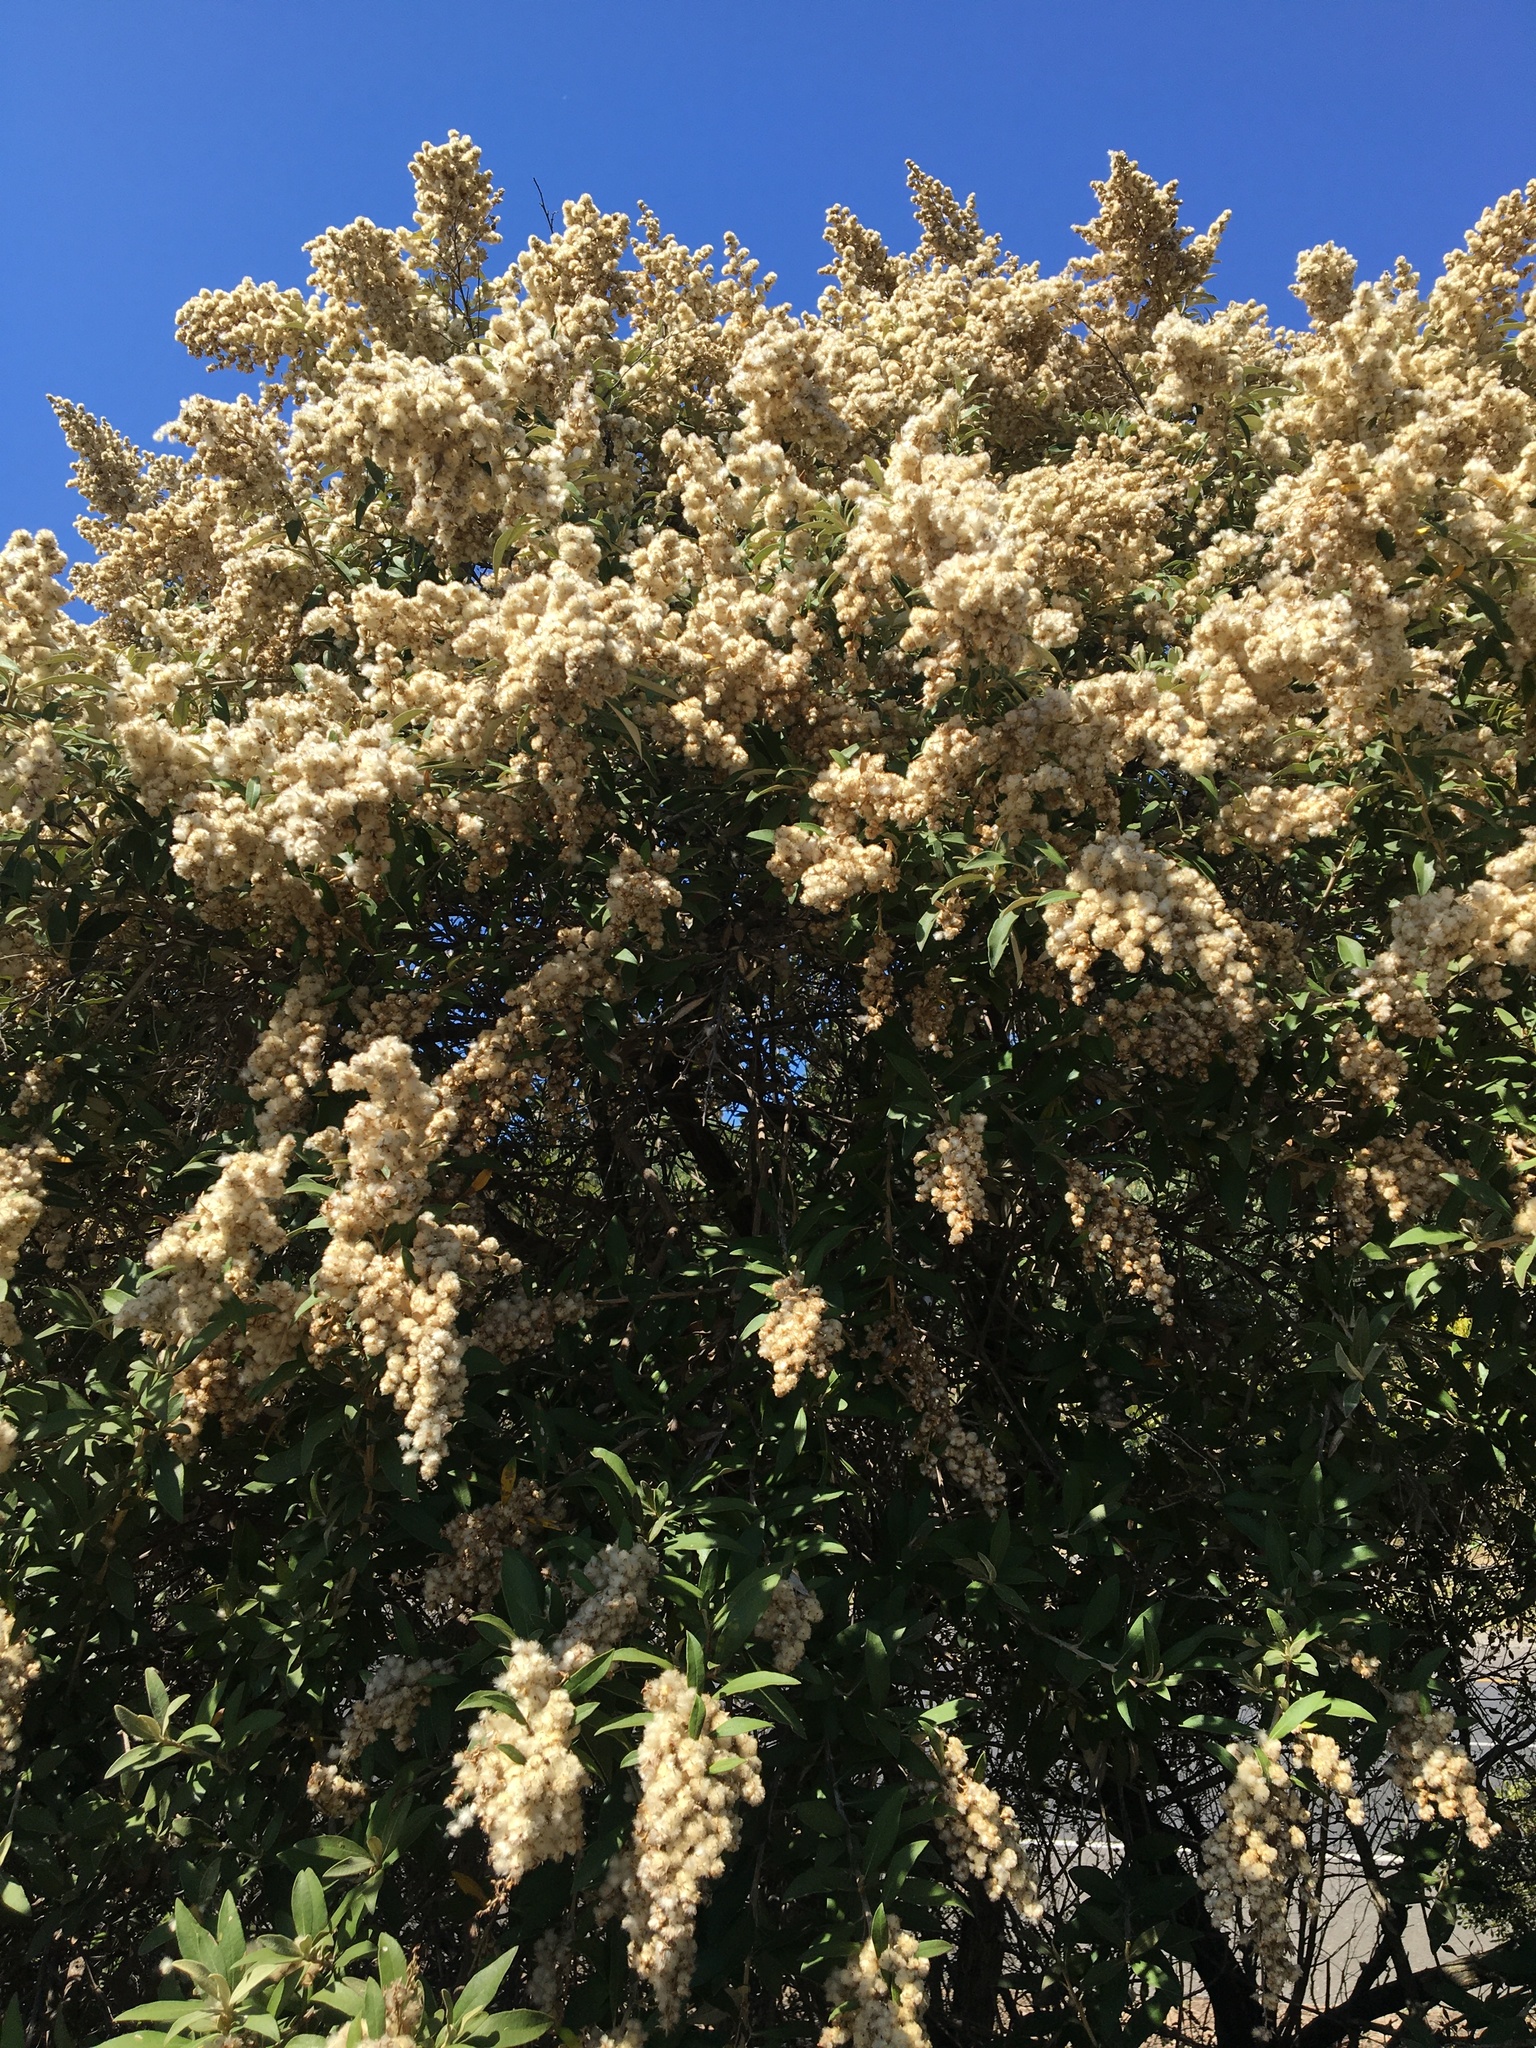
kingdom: Plantae
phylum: Tracheophyta
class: Magnoliopsida
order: Asterales
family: Asteraceae
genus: Tarchonanthus
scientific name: Tarchonanthus littoralis
